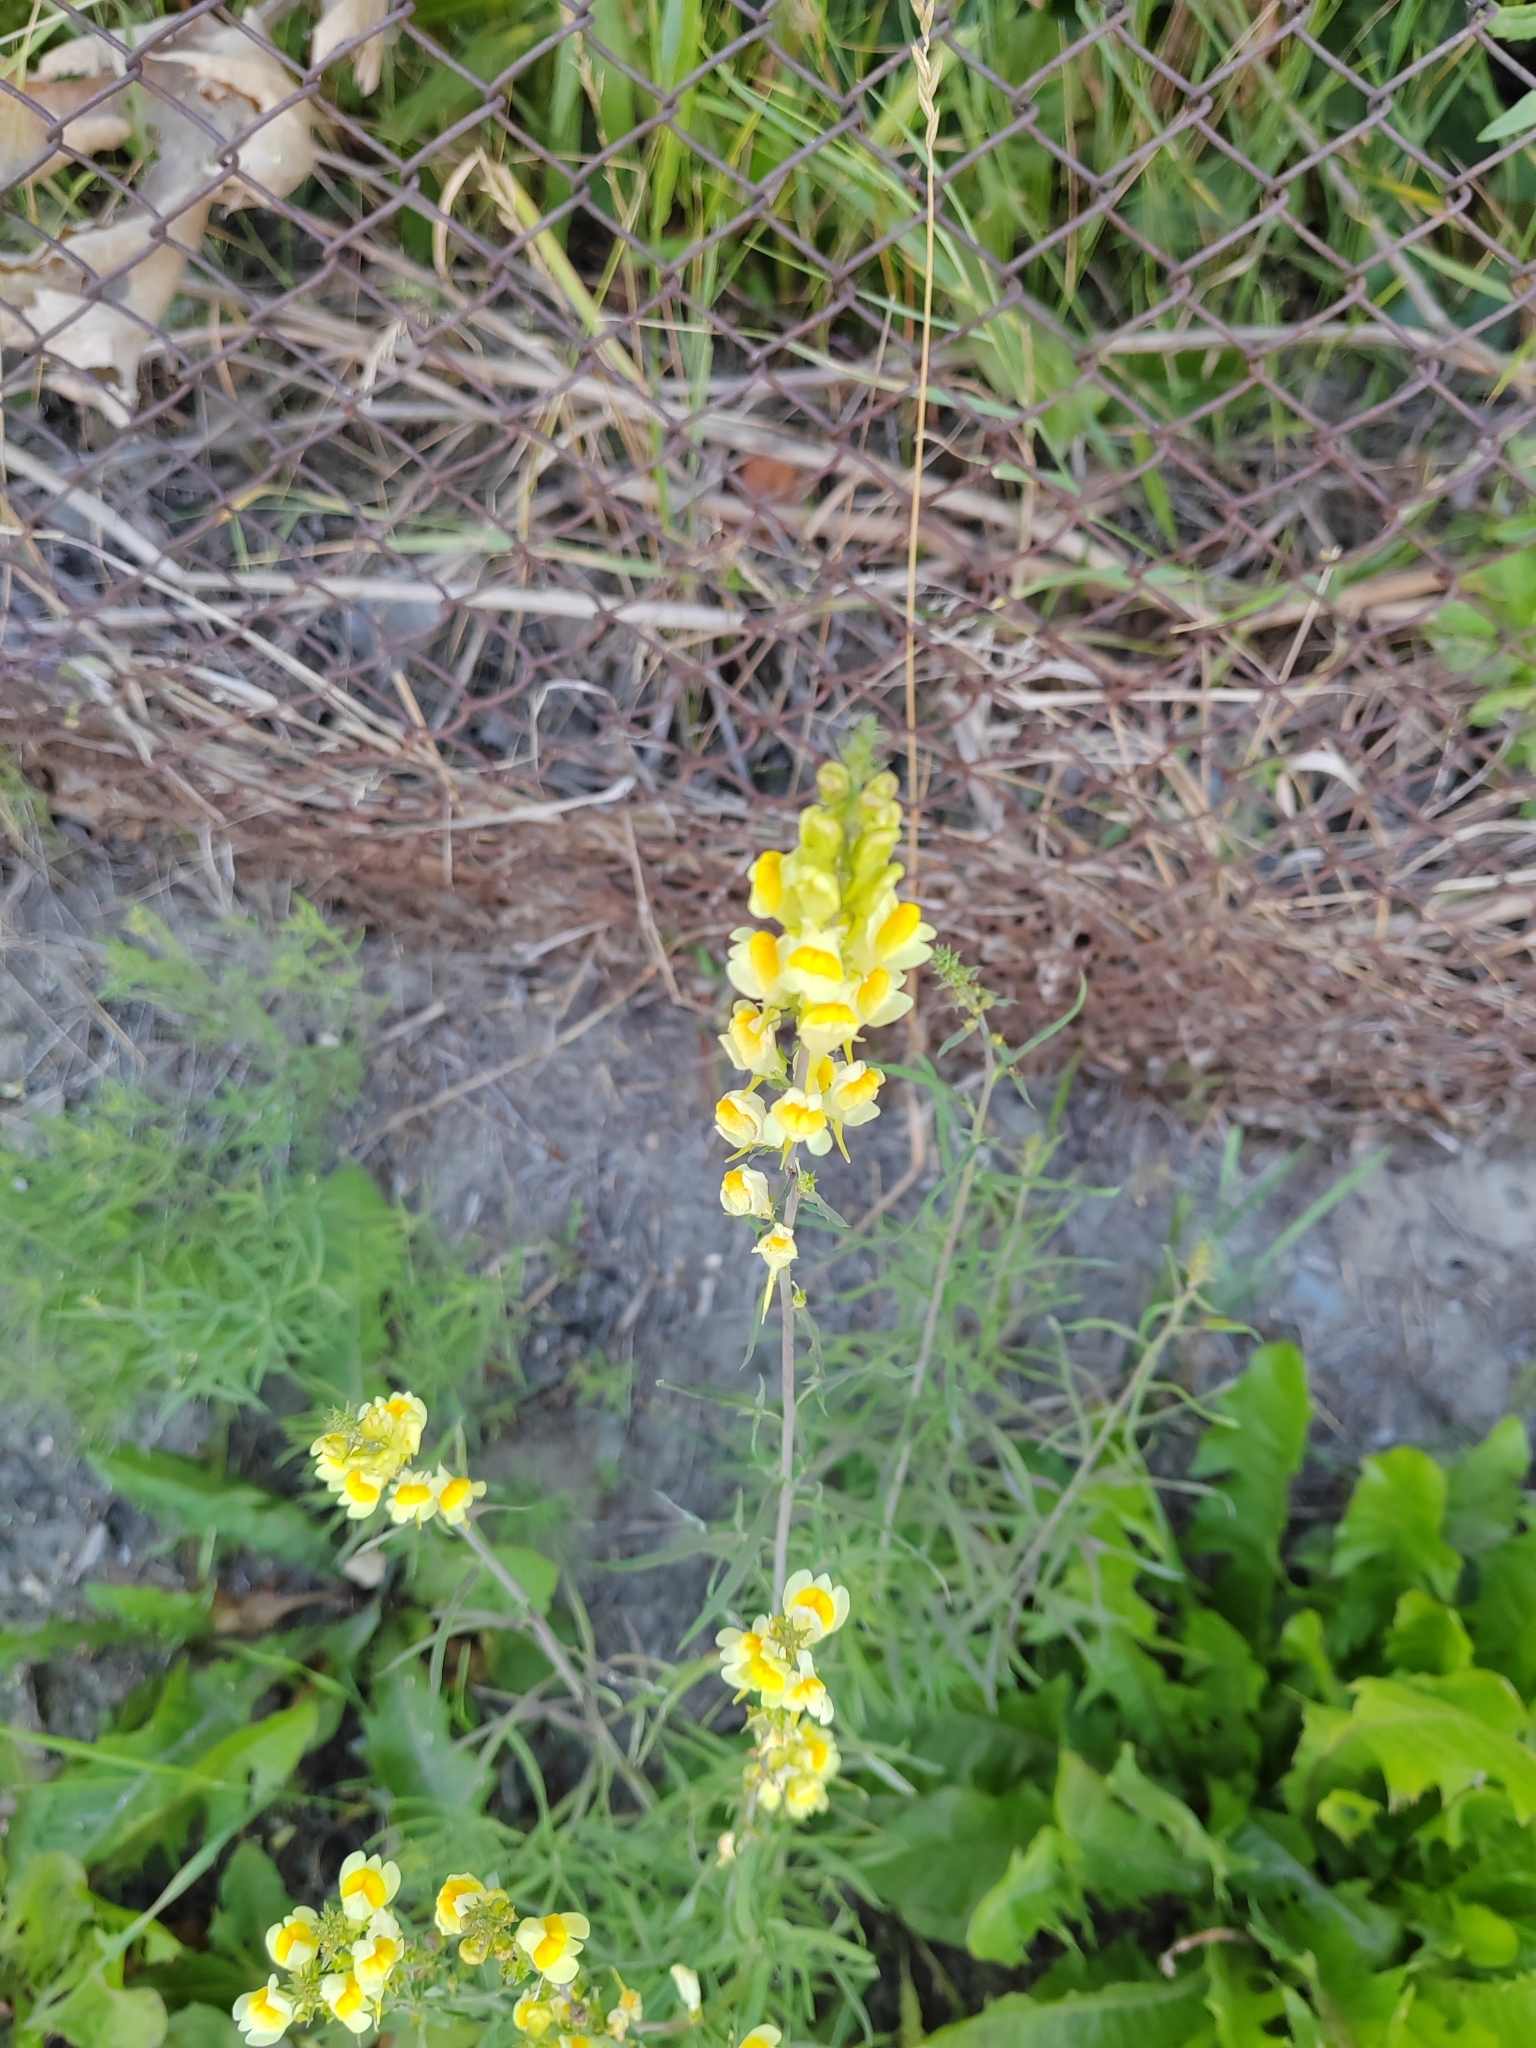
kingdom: Plantae
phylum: Tracheophyta
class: Magnoliopsida
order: Lamiales
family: Plantaginaceae
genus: Linaria
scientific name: Linaria vulgaris
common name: Butter and eggs
